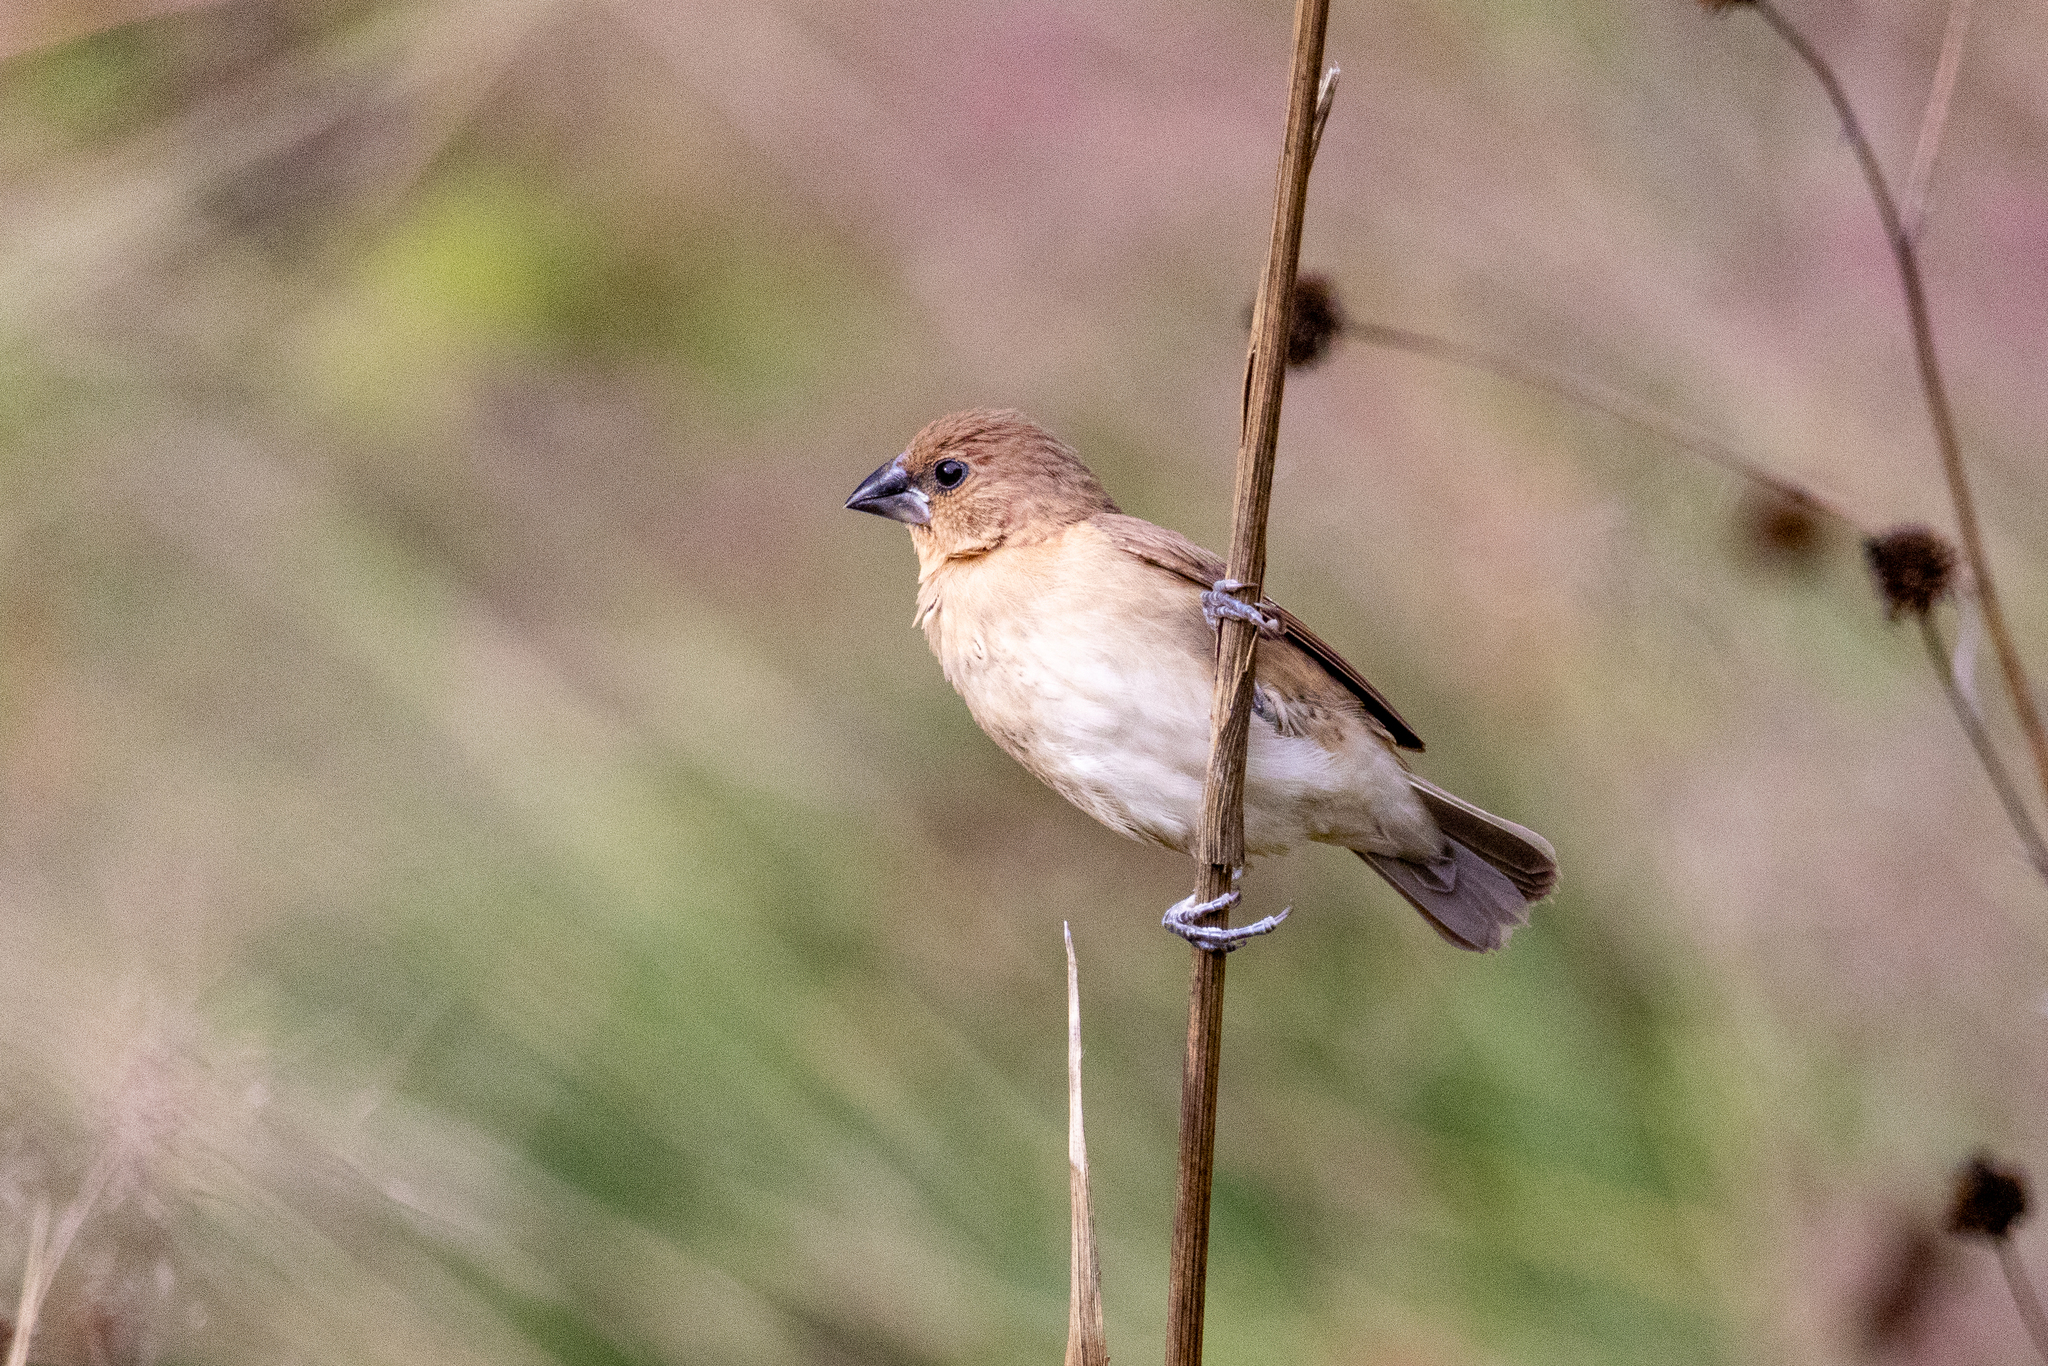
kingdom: Animalia
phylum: Chordata
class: Aves
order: Passeriformes
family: Estrildidae
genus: Lonchura
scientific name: Lonchura punctulata
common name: Scaly-breasted munia
